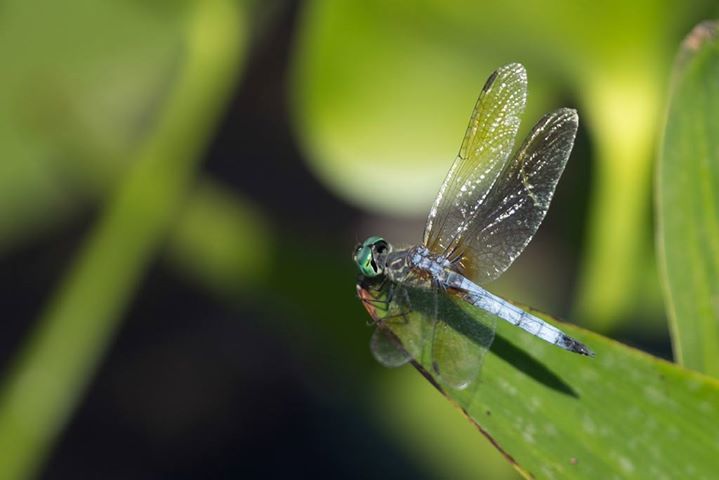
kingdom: Animalia
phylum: Arthropoda
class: Insecta
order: Odonata
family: Libellulidae
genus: Pachydiplax
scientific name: Pachydiplax longipennis
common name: Blue dasher
